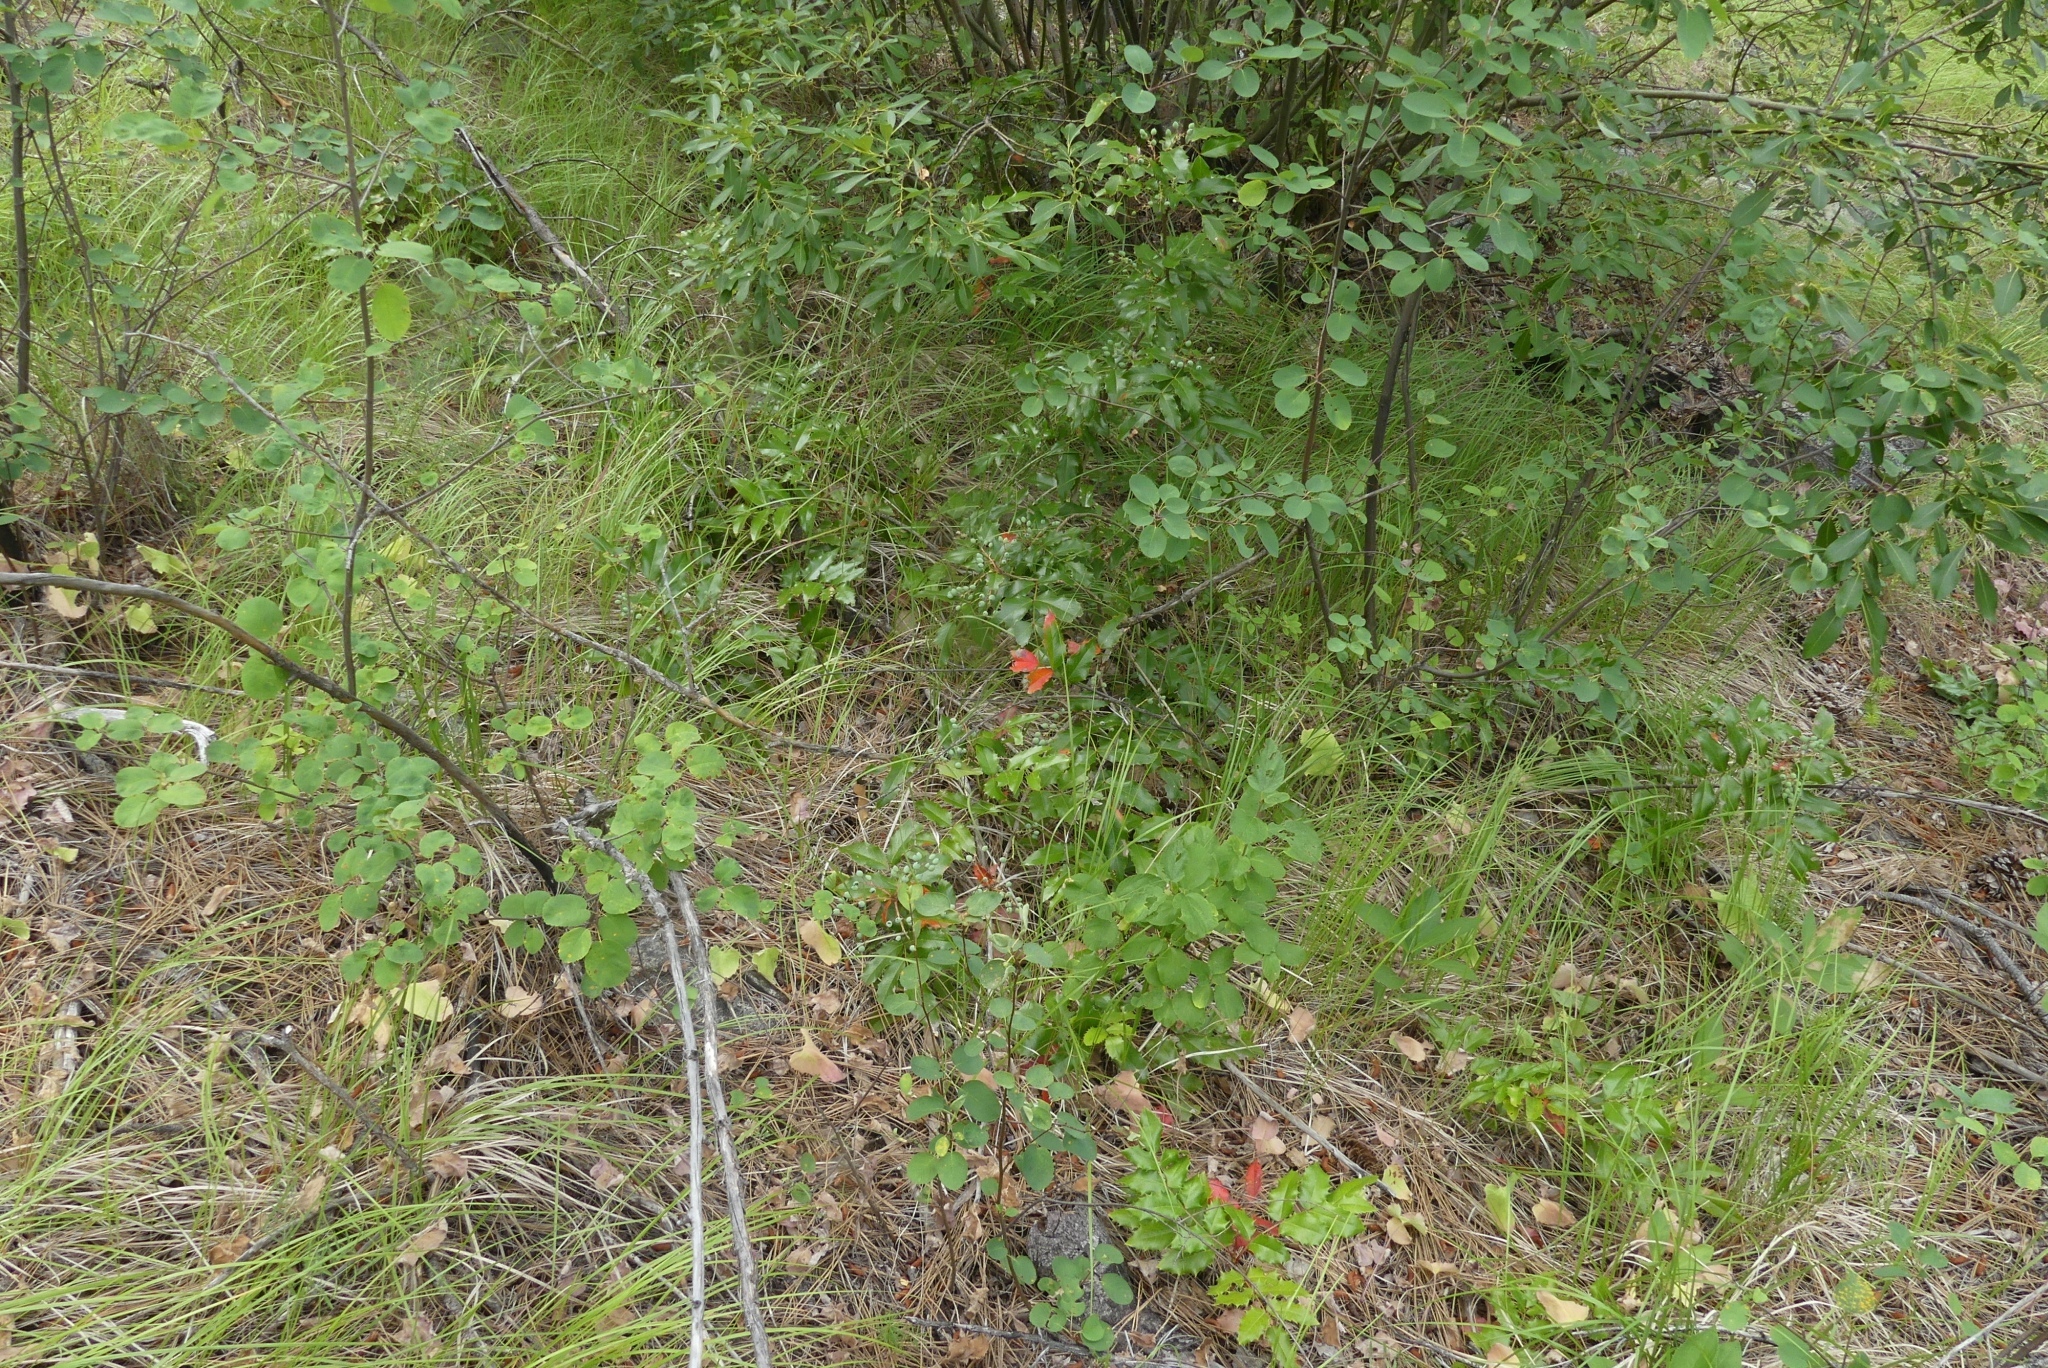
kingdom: Plantae
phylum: Tracheophyta
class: Magnoliopsida
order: Ranunculales
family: Berberidaceae
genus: Mahonia
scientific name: Mahonia aquifolium
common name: Oregon-grape
